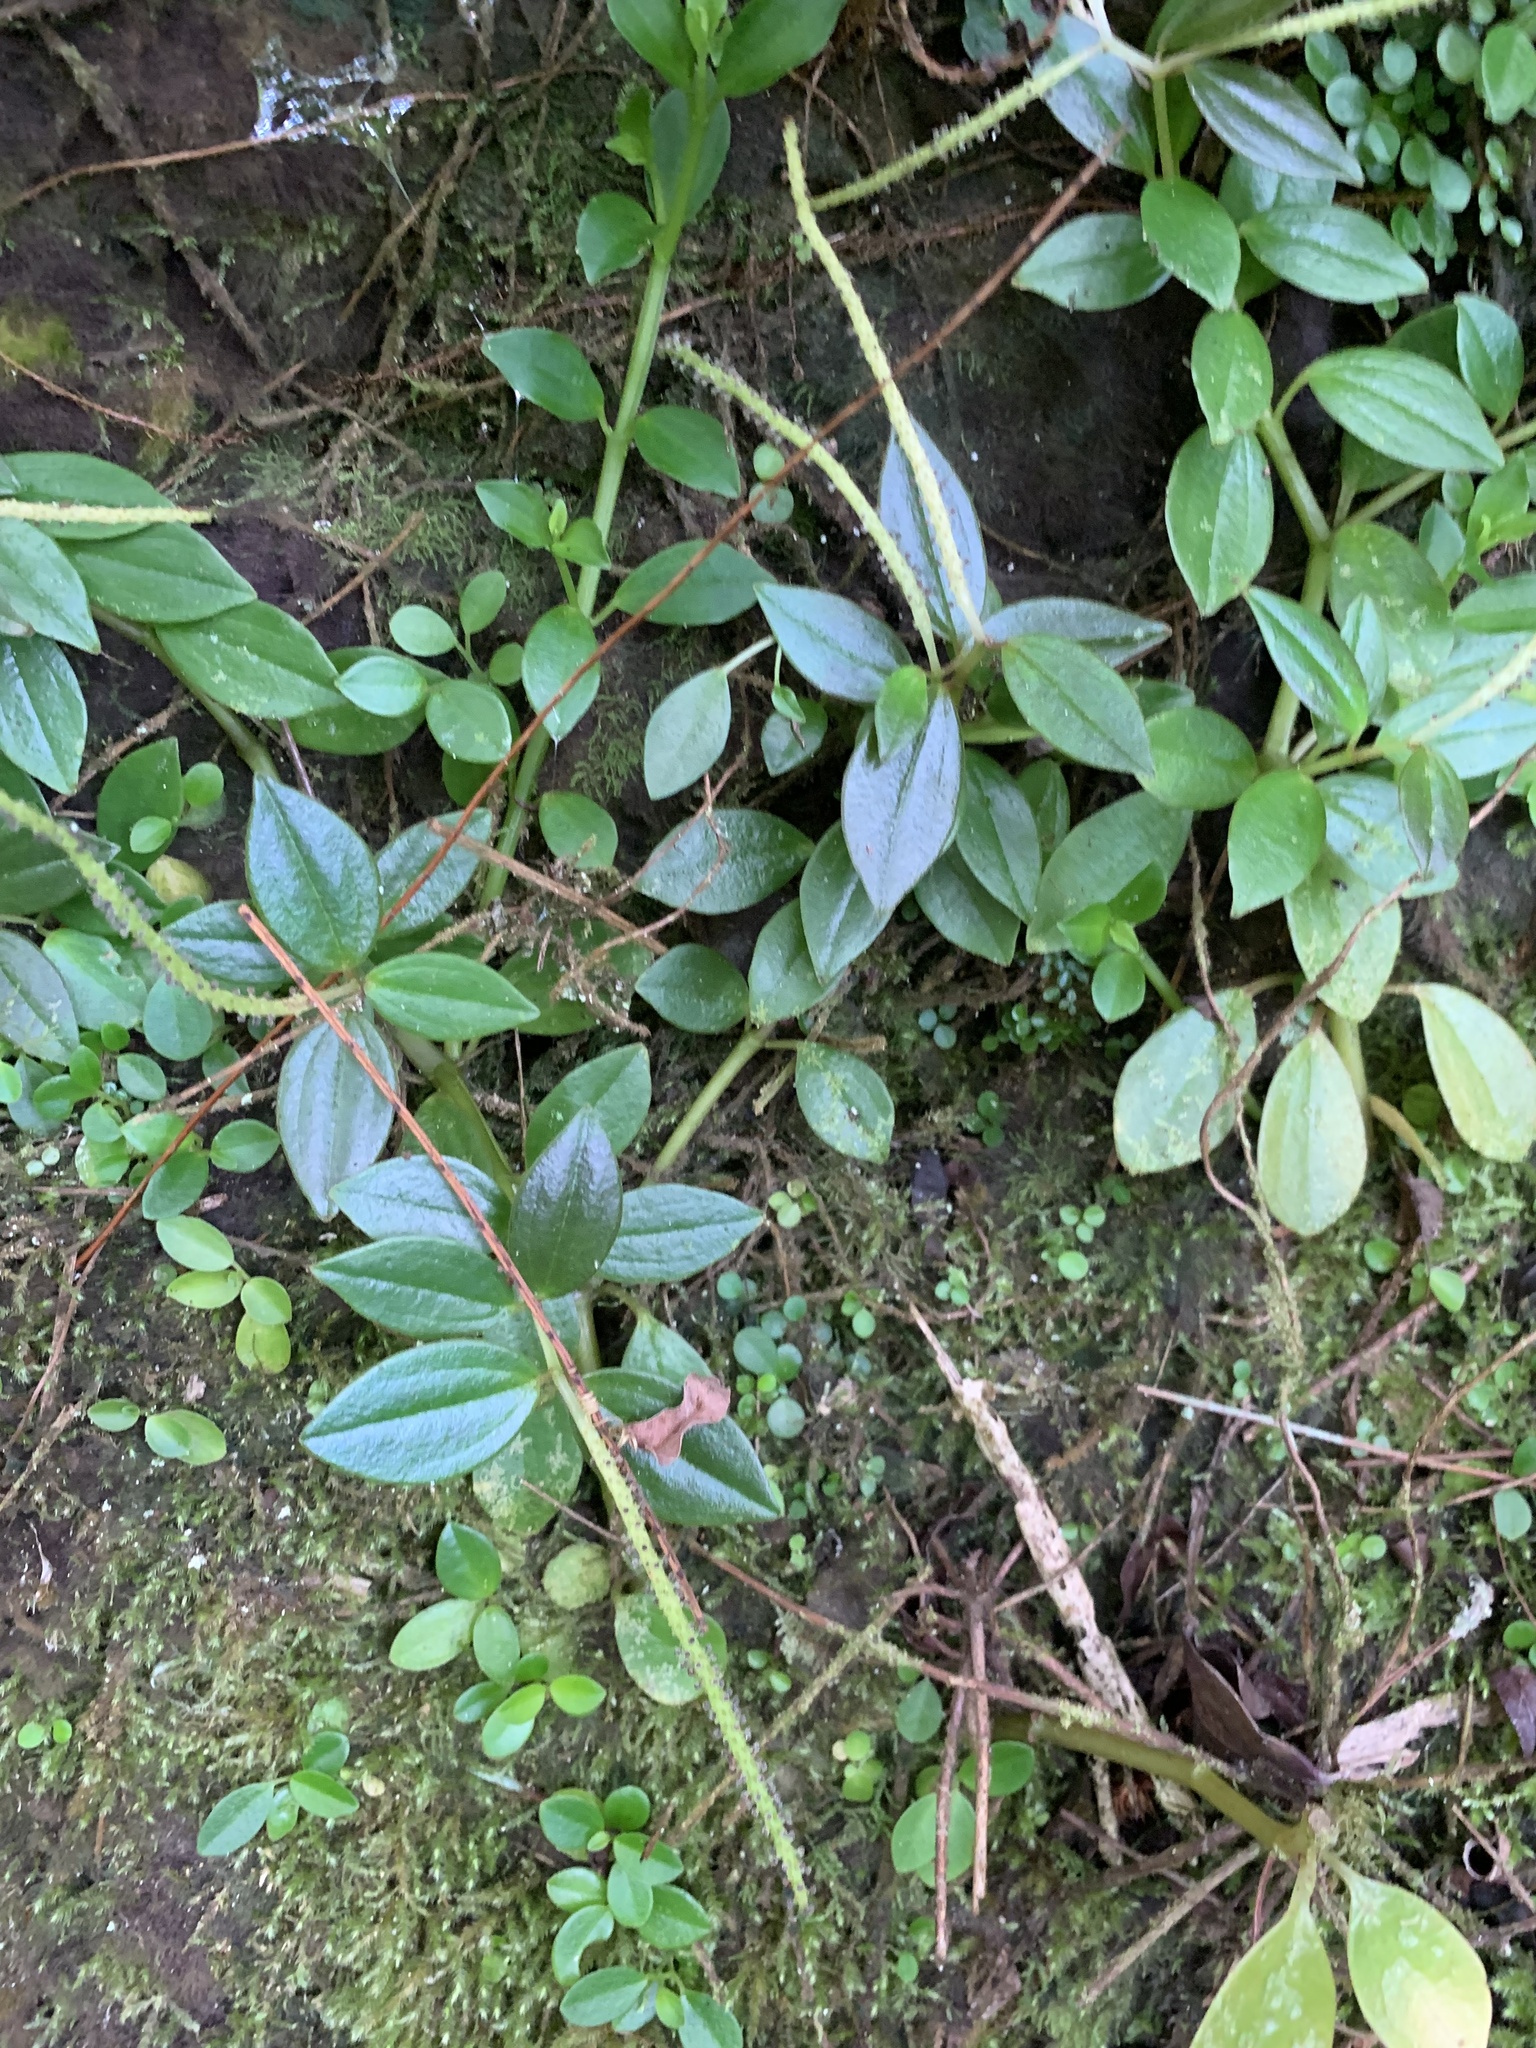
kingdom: Plantae
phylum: Tracheophyta
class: Magnoliopsida
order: Piperales
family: Piperaceae
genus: Peperomia
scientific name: Peperomia boninsimensis
